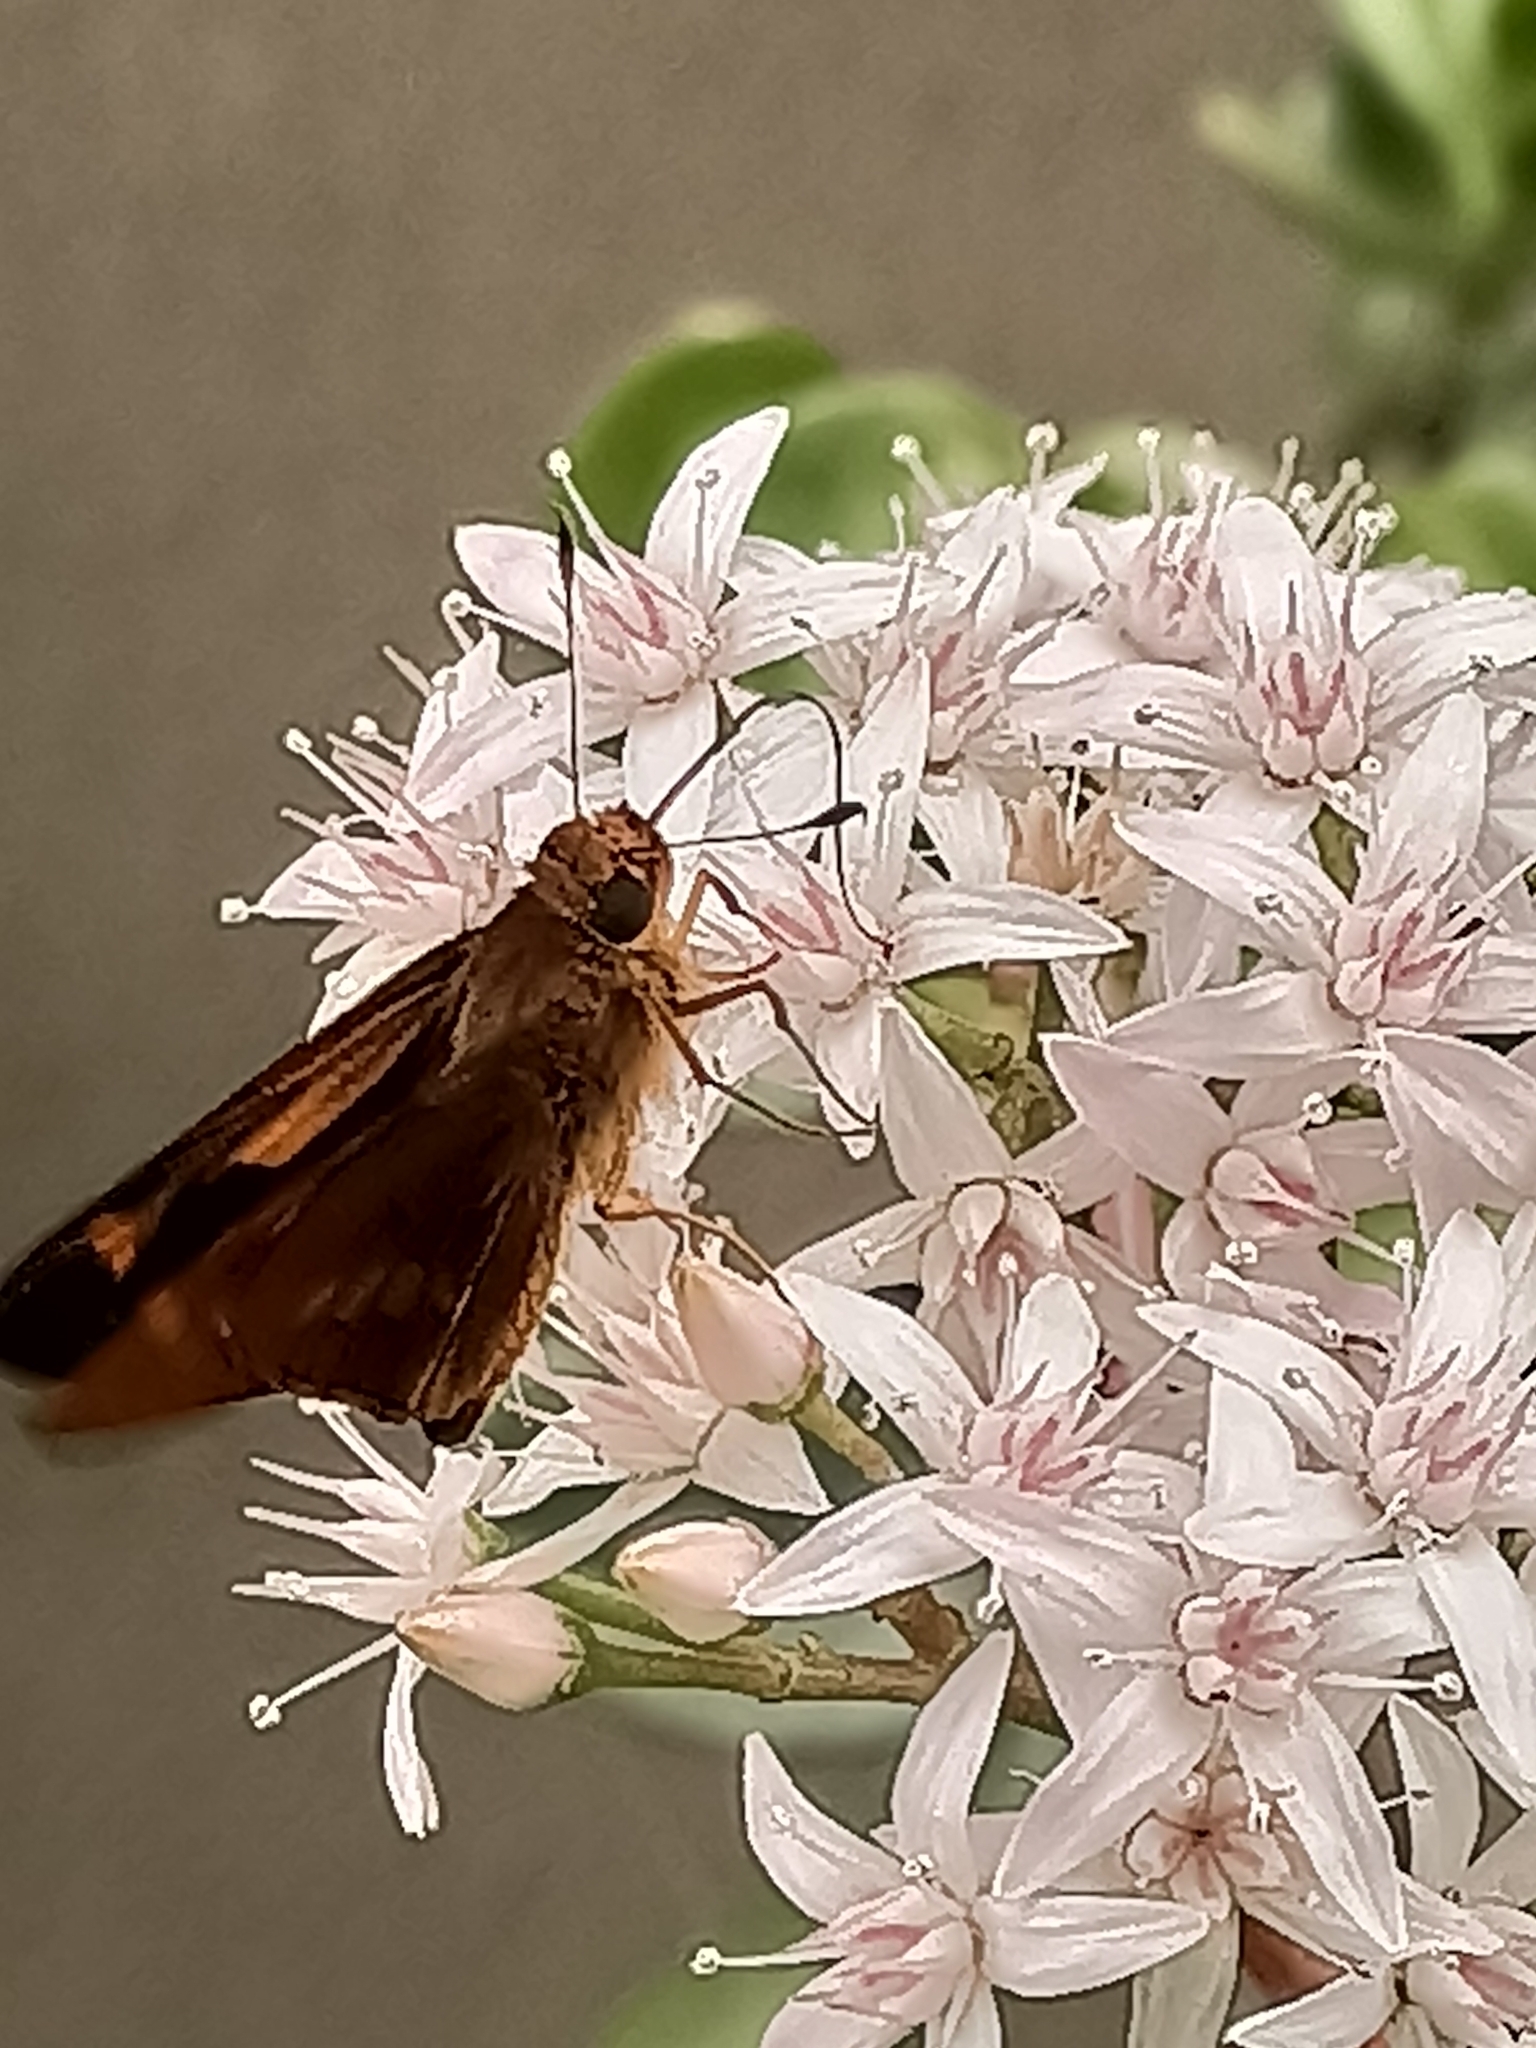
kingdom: Animalia
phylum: Arthropoda
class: Insecta
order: Lepidoptera
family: Hesperiidae
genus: Cephrenes
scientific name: Cephrenes augiades
